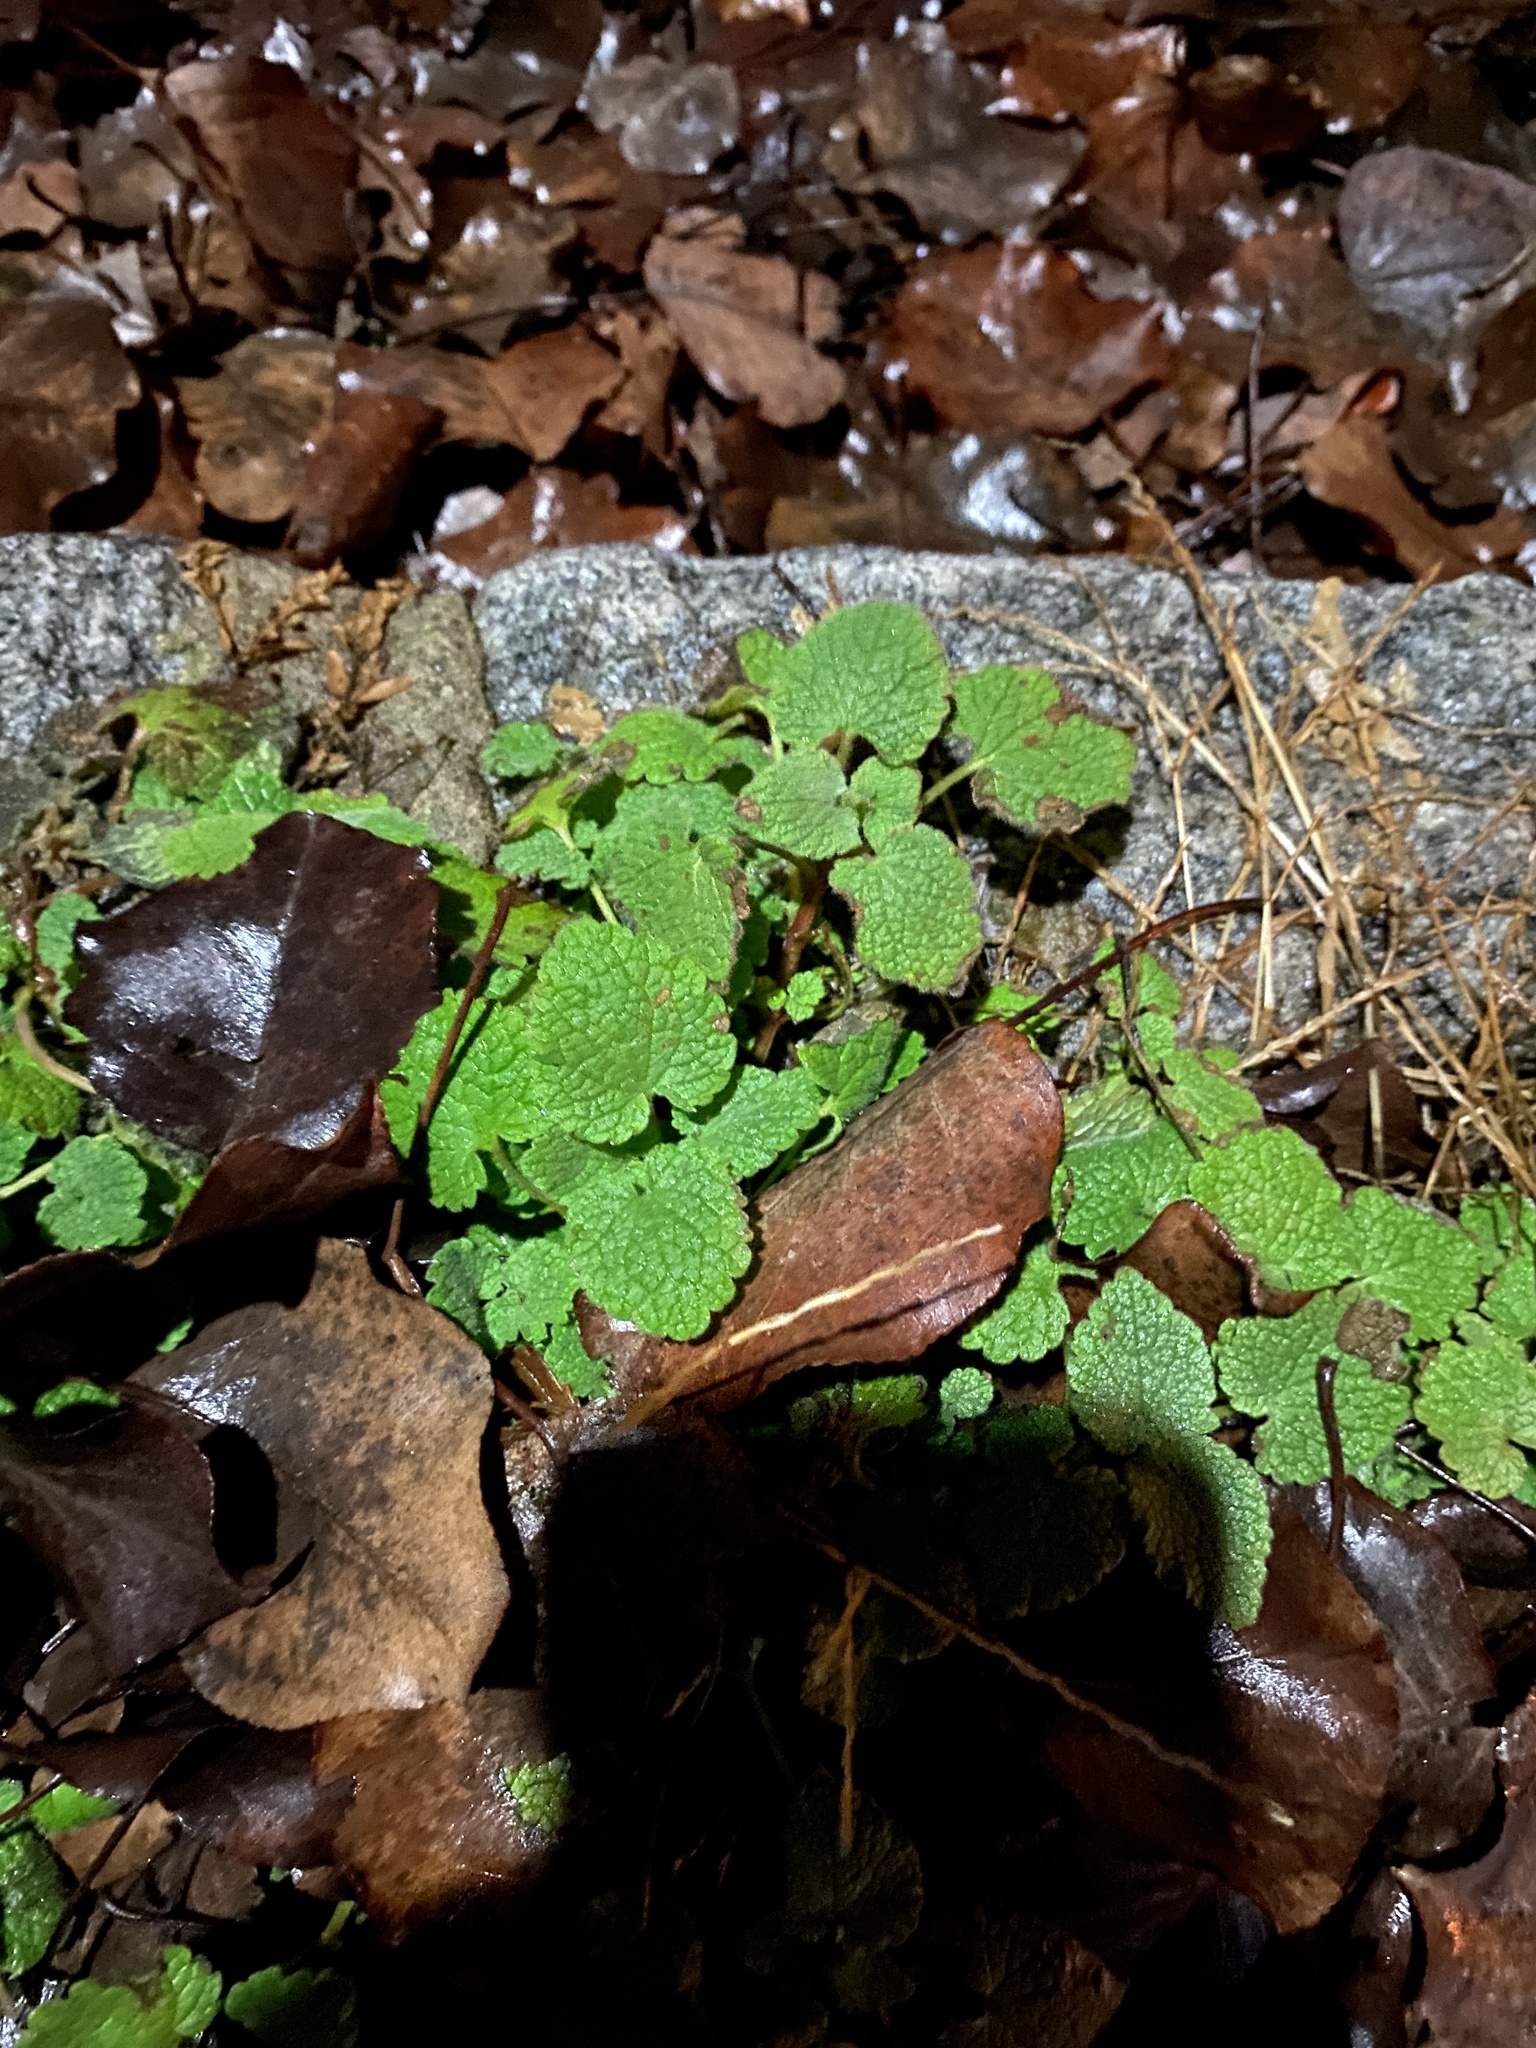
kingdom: Plantae
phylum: Tracheophyta
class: Magnoliopsida
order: Lamiales
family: Lamiaceae
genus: Lamium
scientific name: Lamium purpureum
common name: Red dead-nettle
